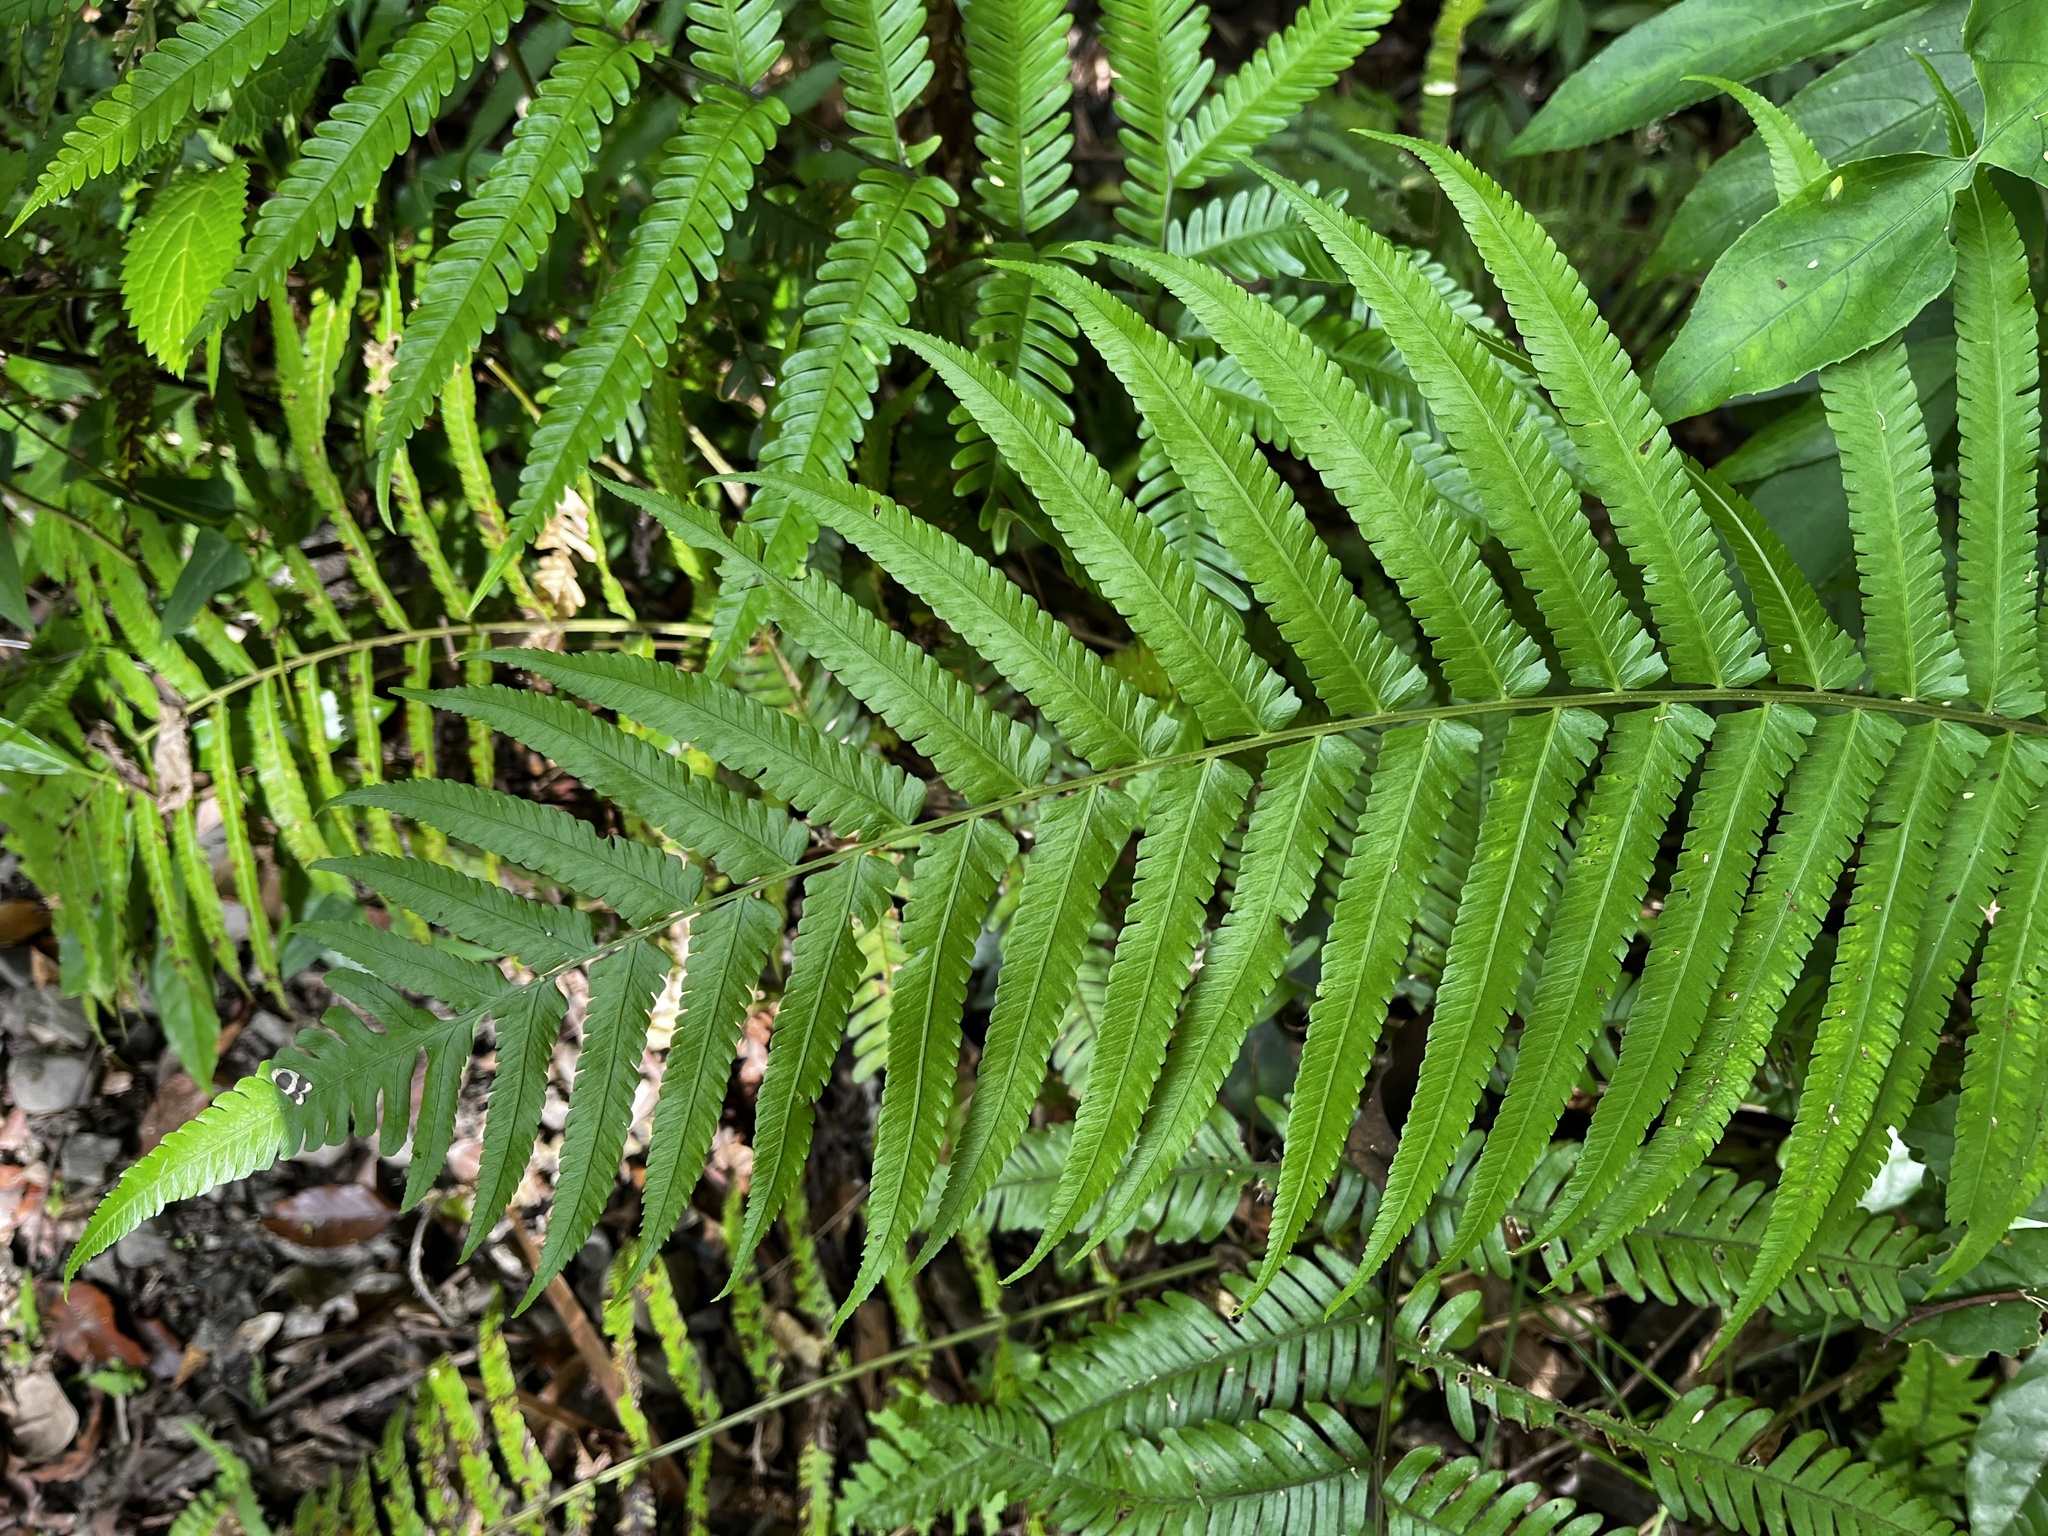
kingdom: Plantae
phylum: Tracheophyta
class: Polypodiopsida
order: Polypodiales
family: Thelypteridaceae
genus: Reholttumia
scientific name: Reholttumia truncata
